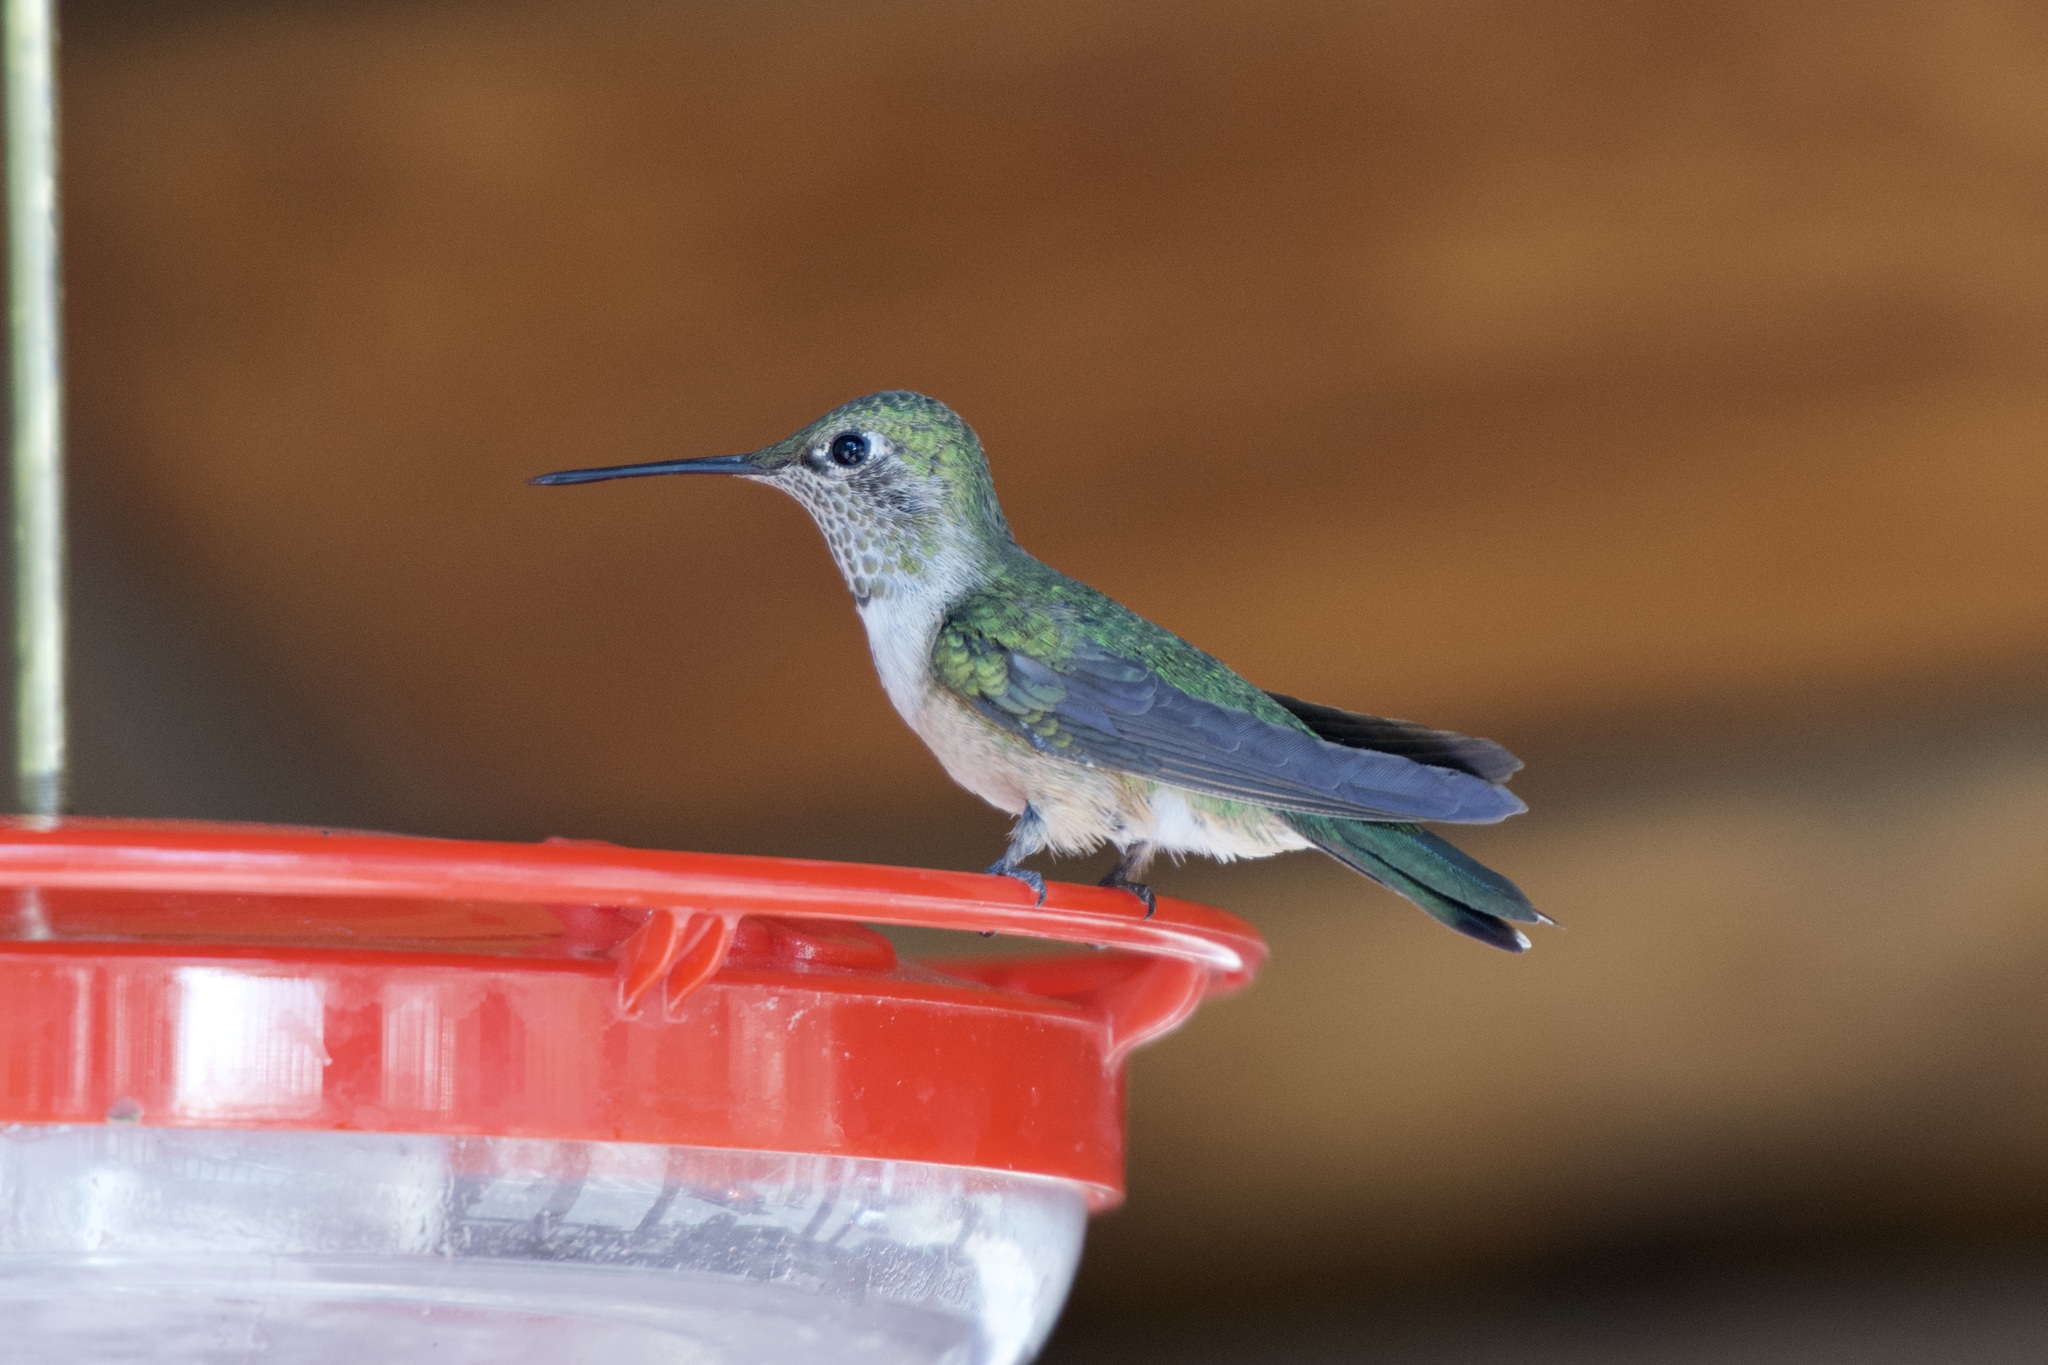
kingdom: Animalia
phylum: Chordata
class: Aves
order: Apodiformes
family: Trochilidae
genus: Selasphorus
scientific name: Selasphorus platycercus
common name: Broad-tailed hummingbird
